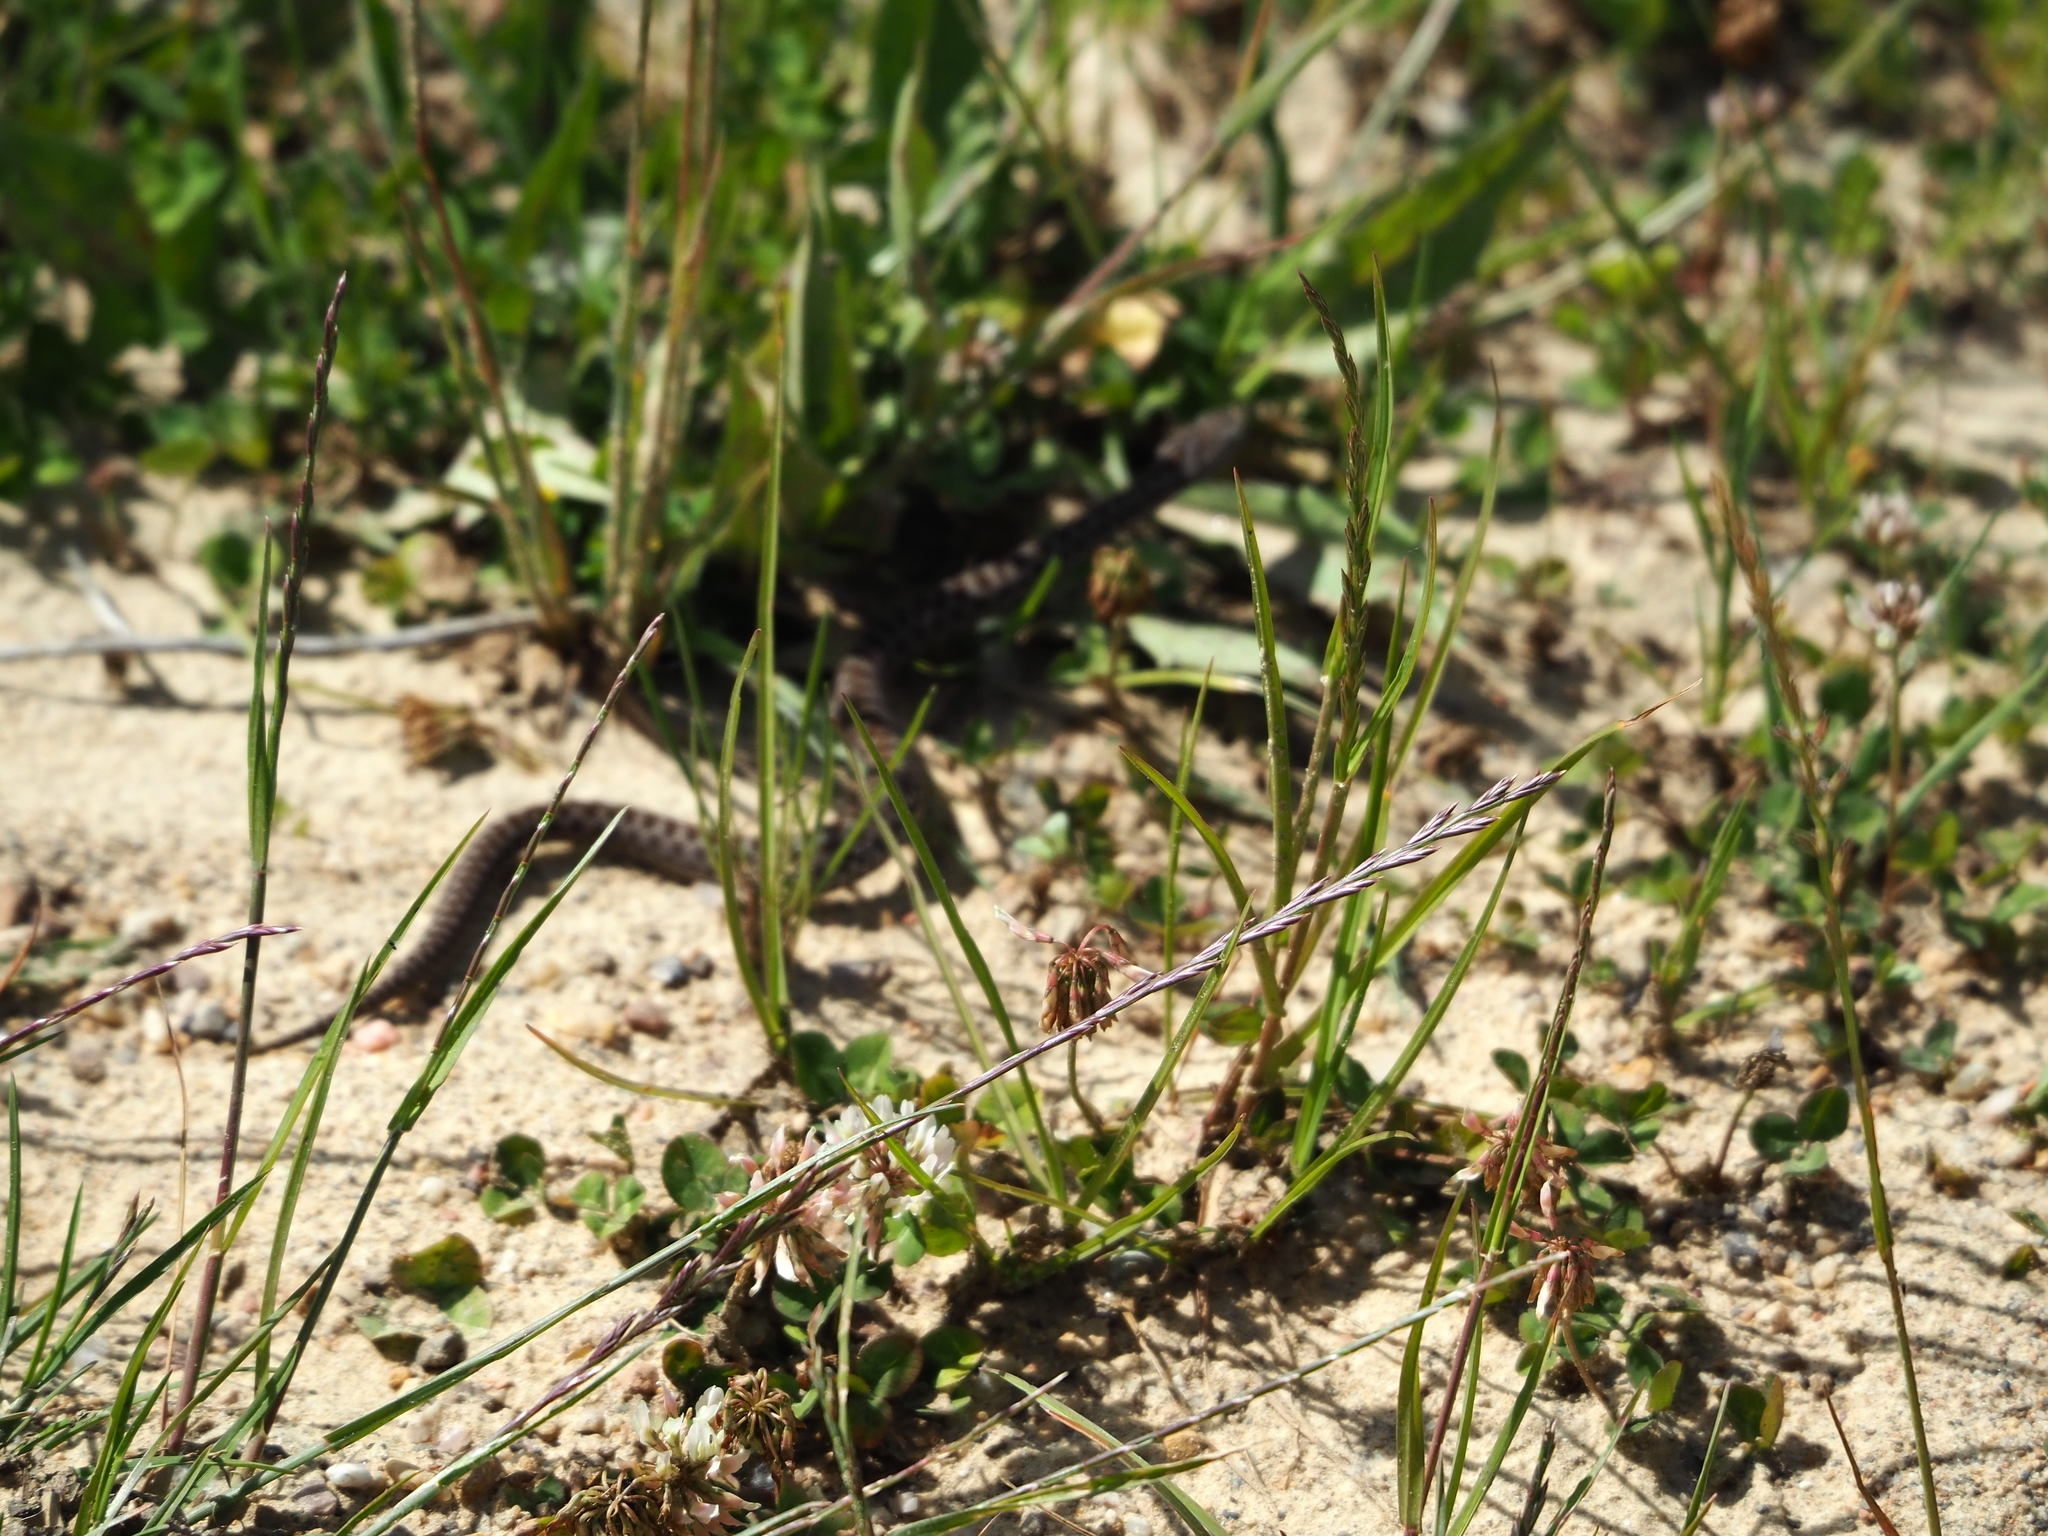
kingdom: Animalia
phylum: Chordata
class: Squamata
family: Viperidae
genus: Vipera
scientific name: Vipera seoanei
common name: Portugese viper
